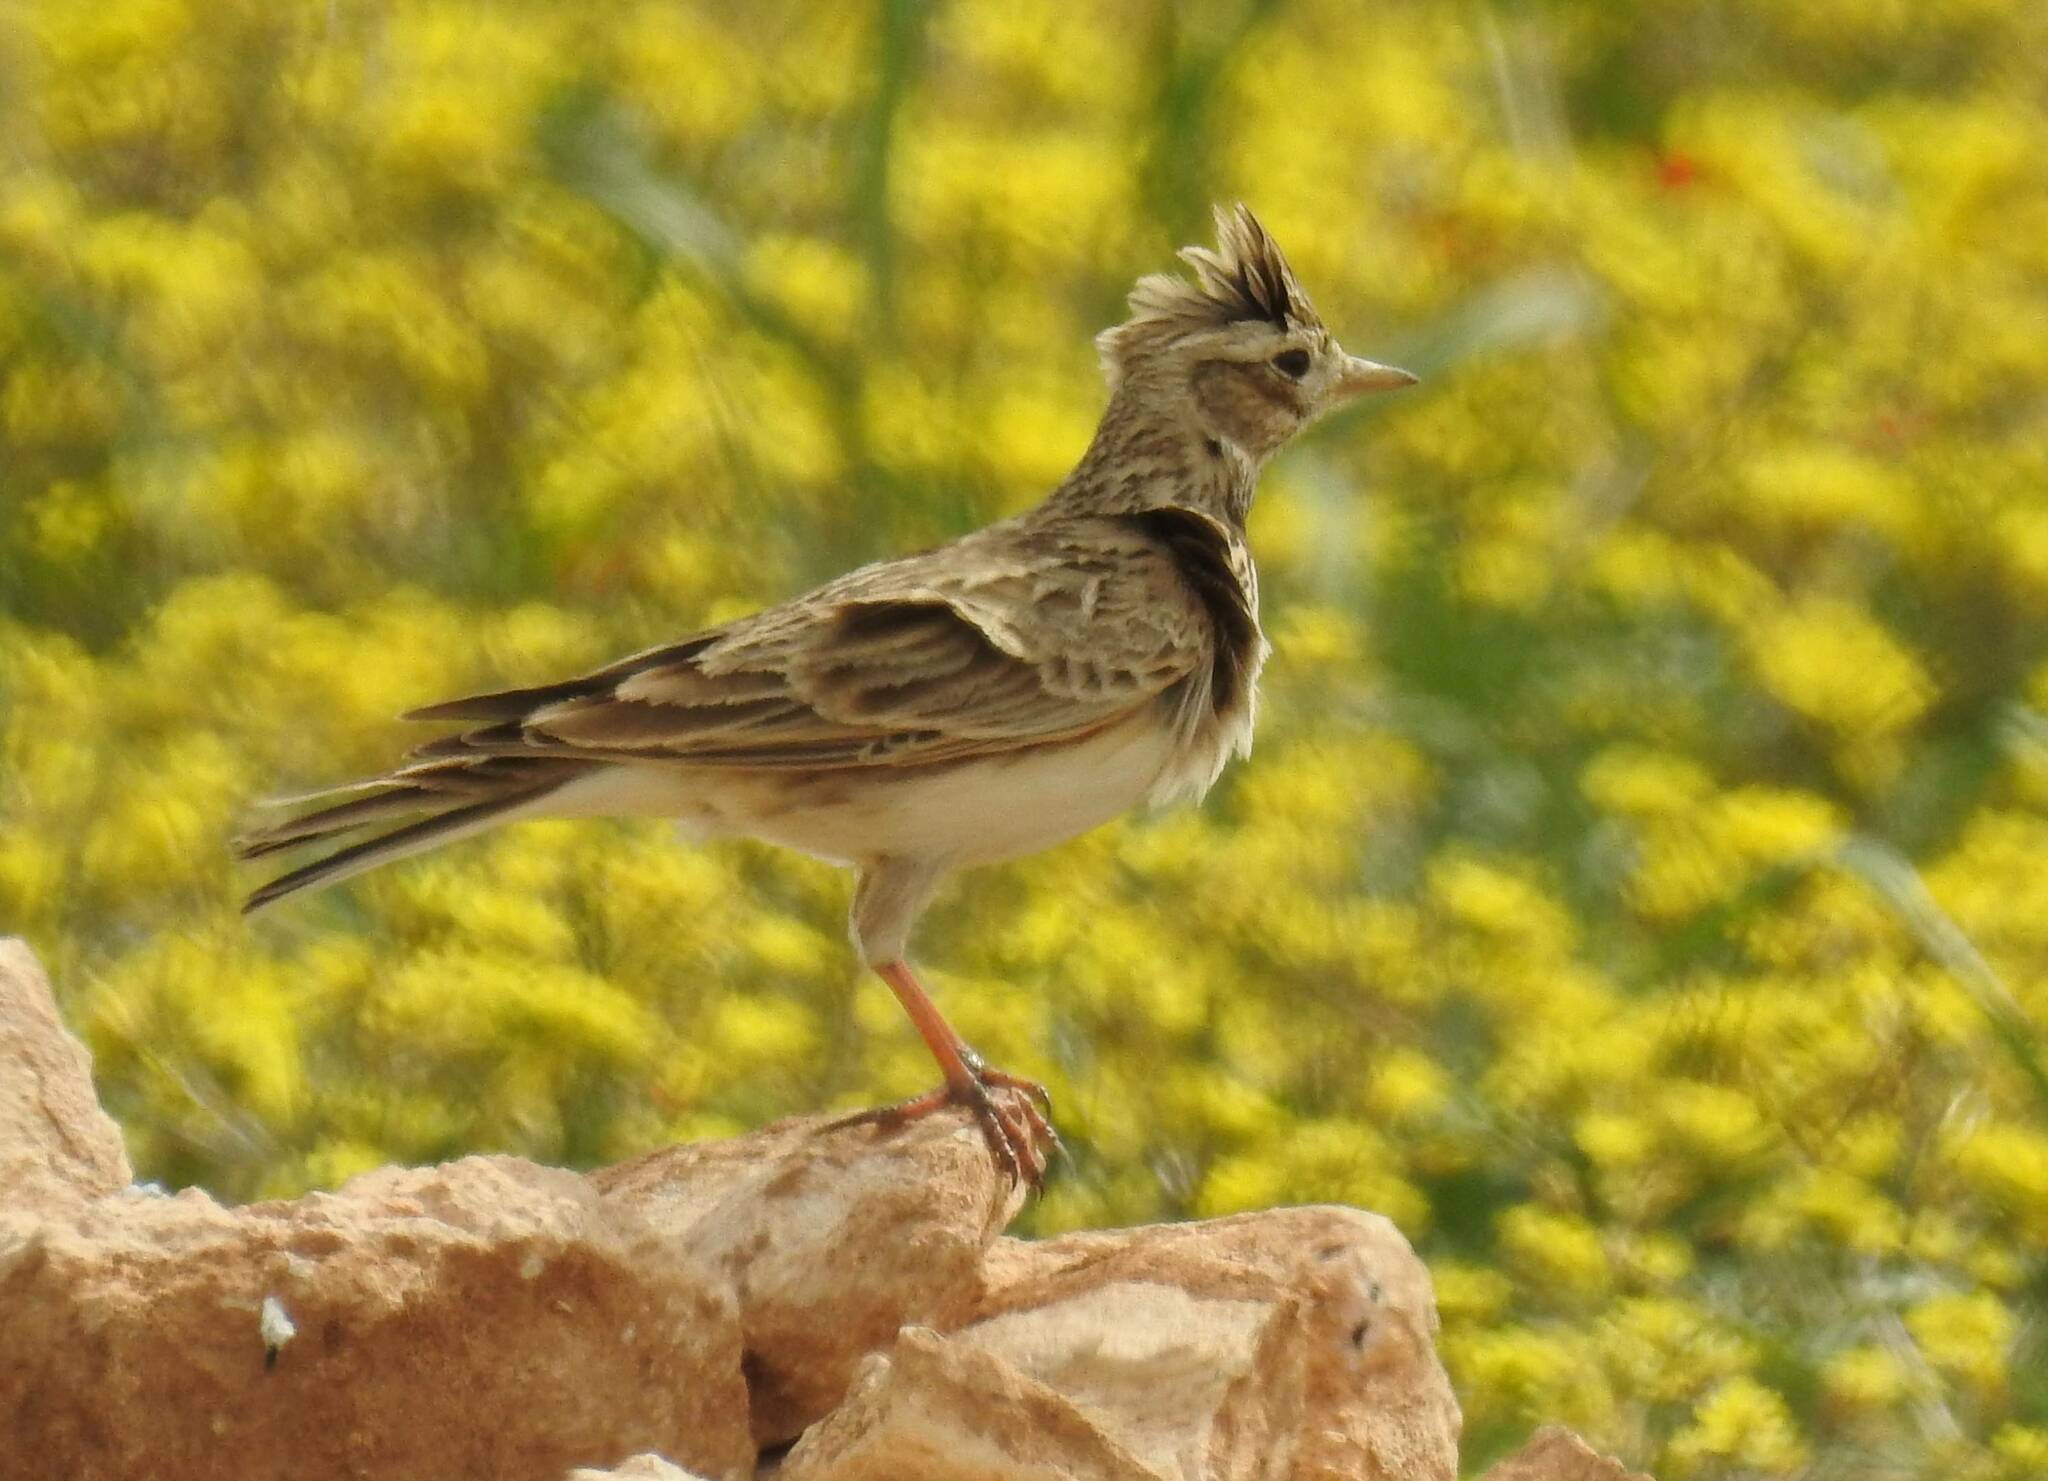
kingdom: Animalia
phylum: Chordata
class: Aves
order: Passeriformes
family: Alaudidae
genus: Alauda
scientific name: Alauda arvensis
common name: Eurasian skylark
